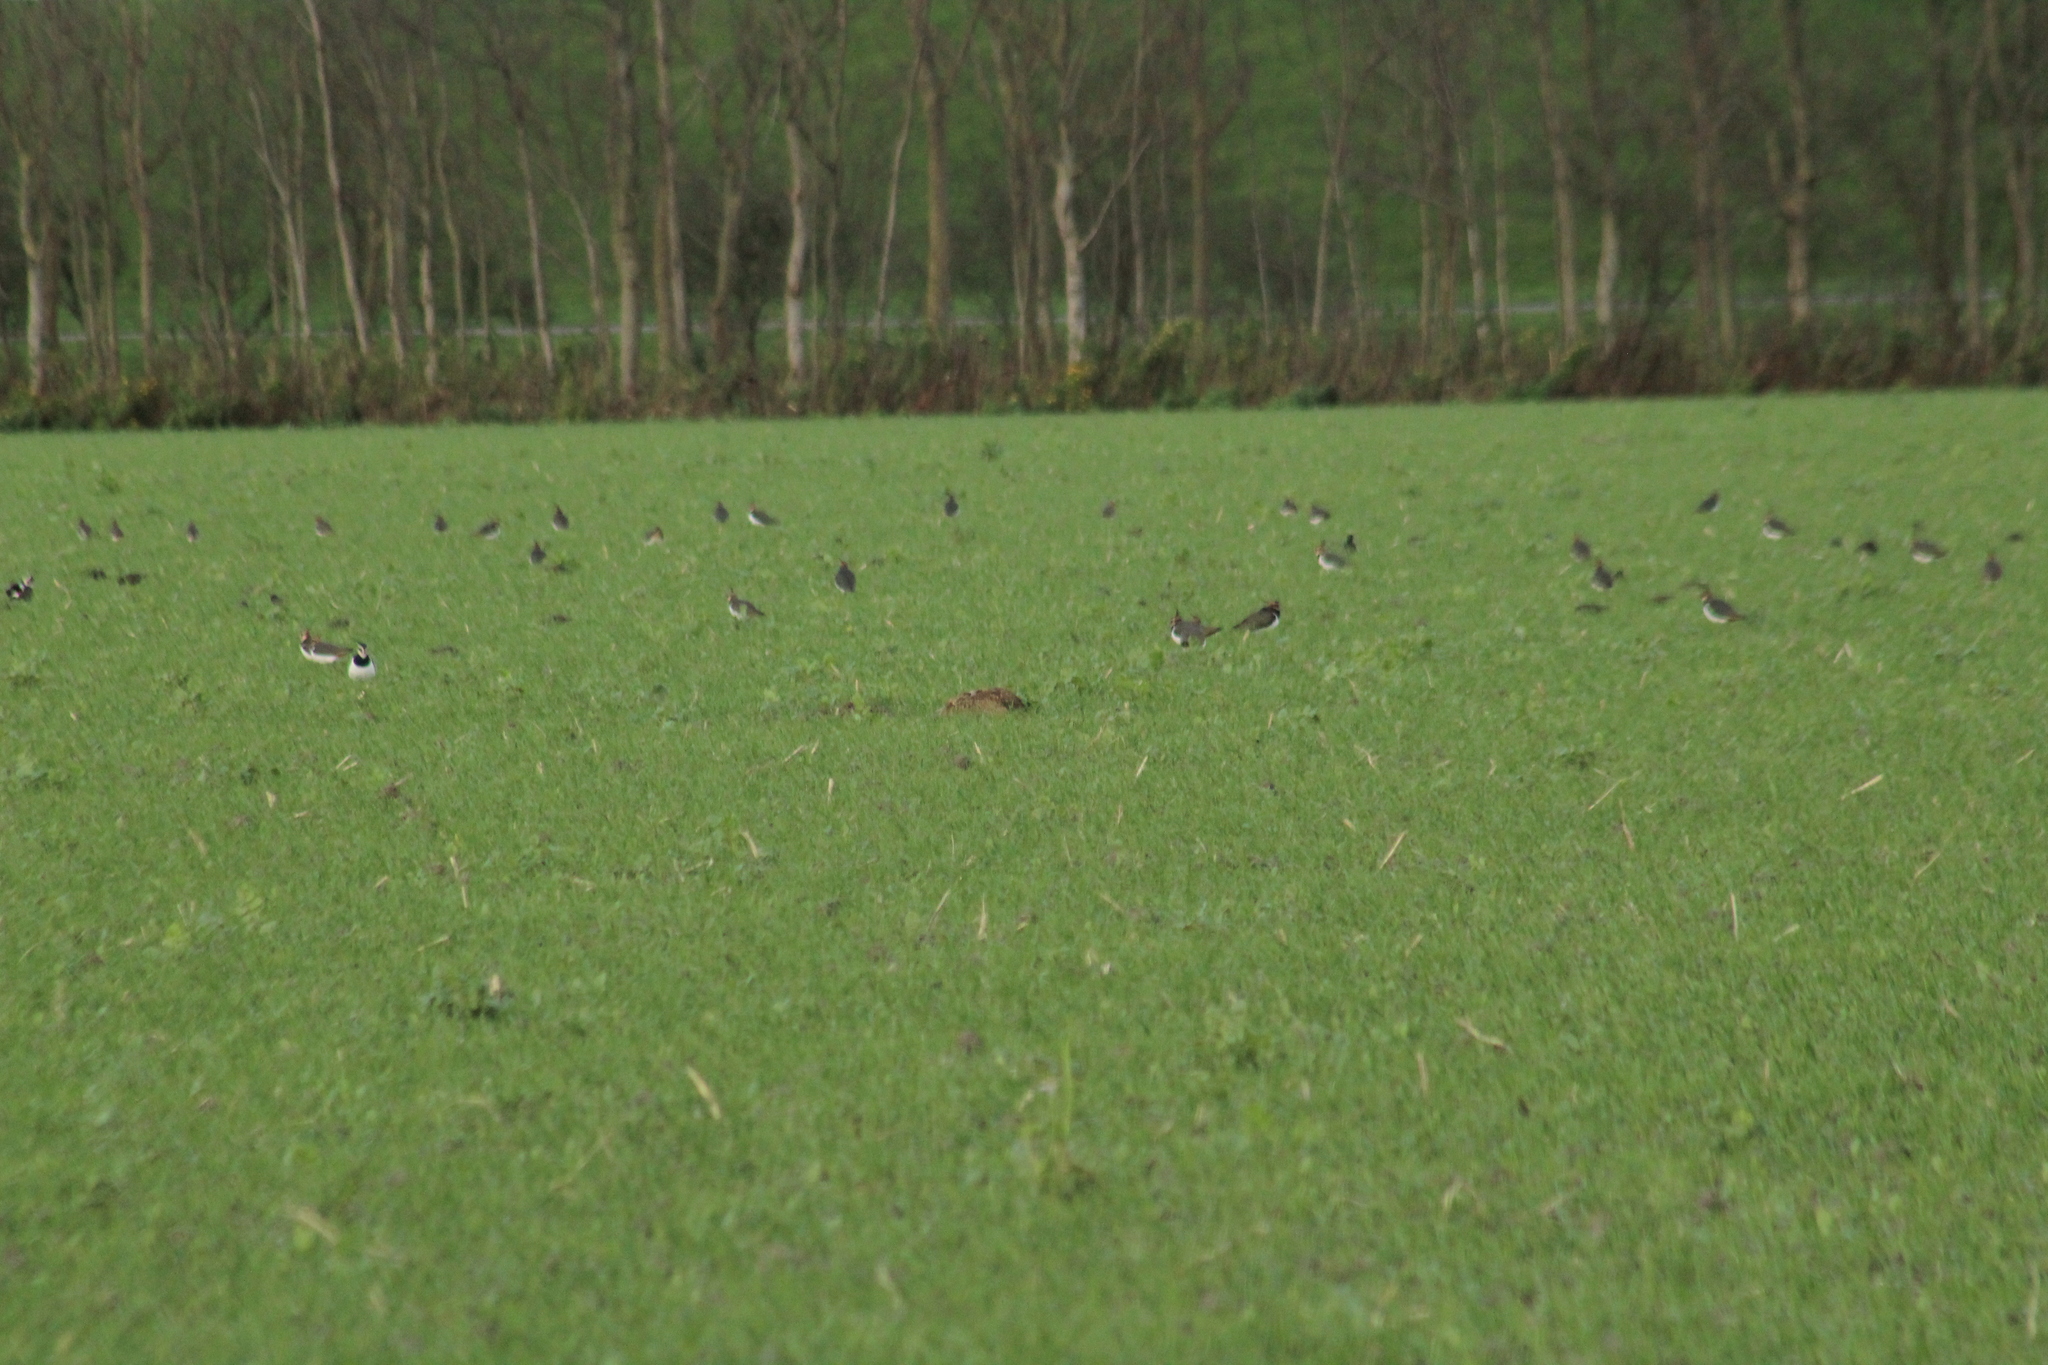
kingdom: Animalia
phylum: Chordata
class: Mammalia
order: Lagomorpha
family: Leporidae
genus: Lepus
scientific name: Lepus europaeus
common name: European hare
